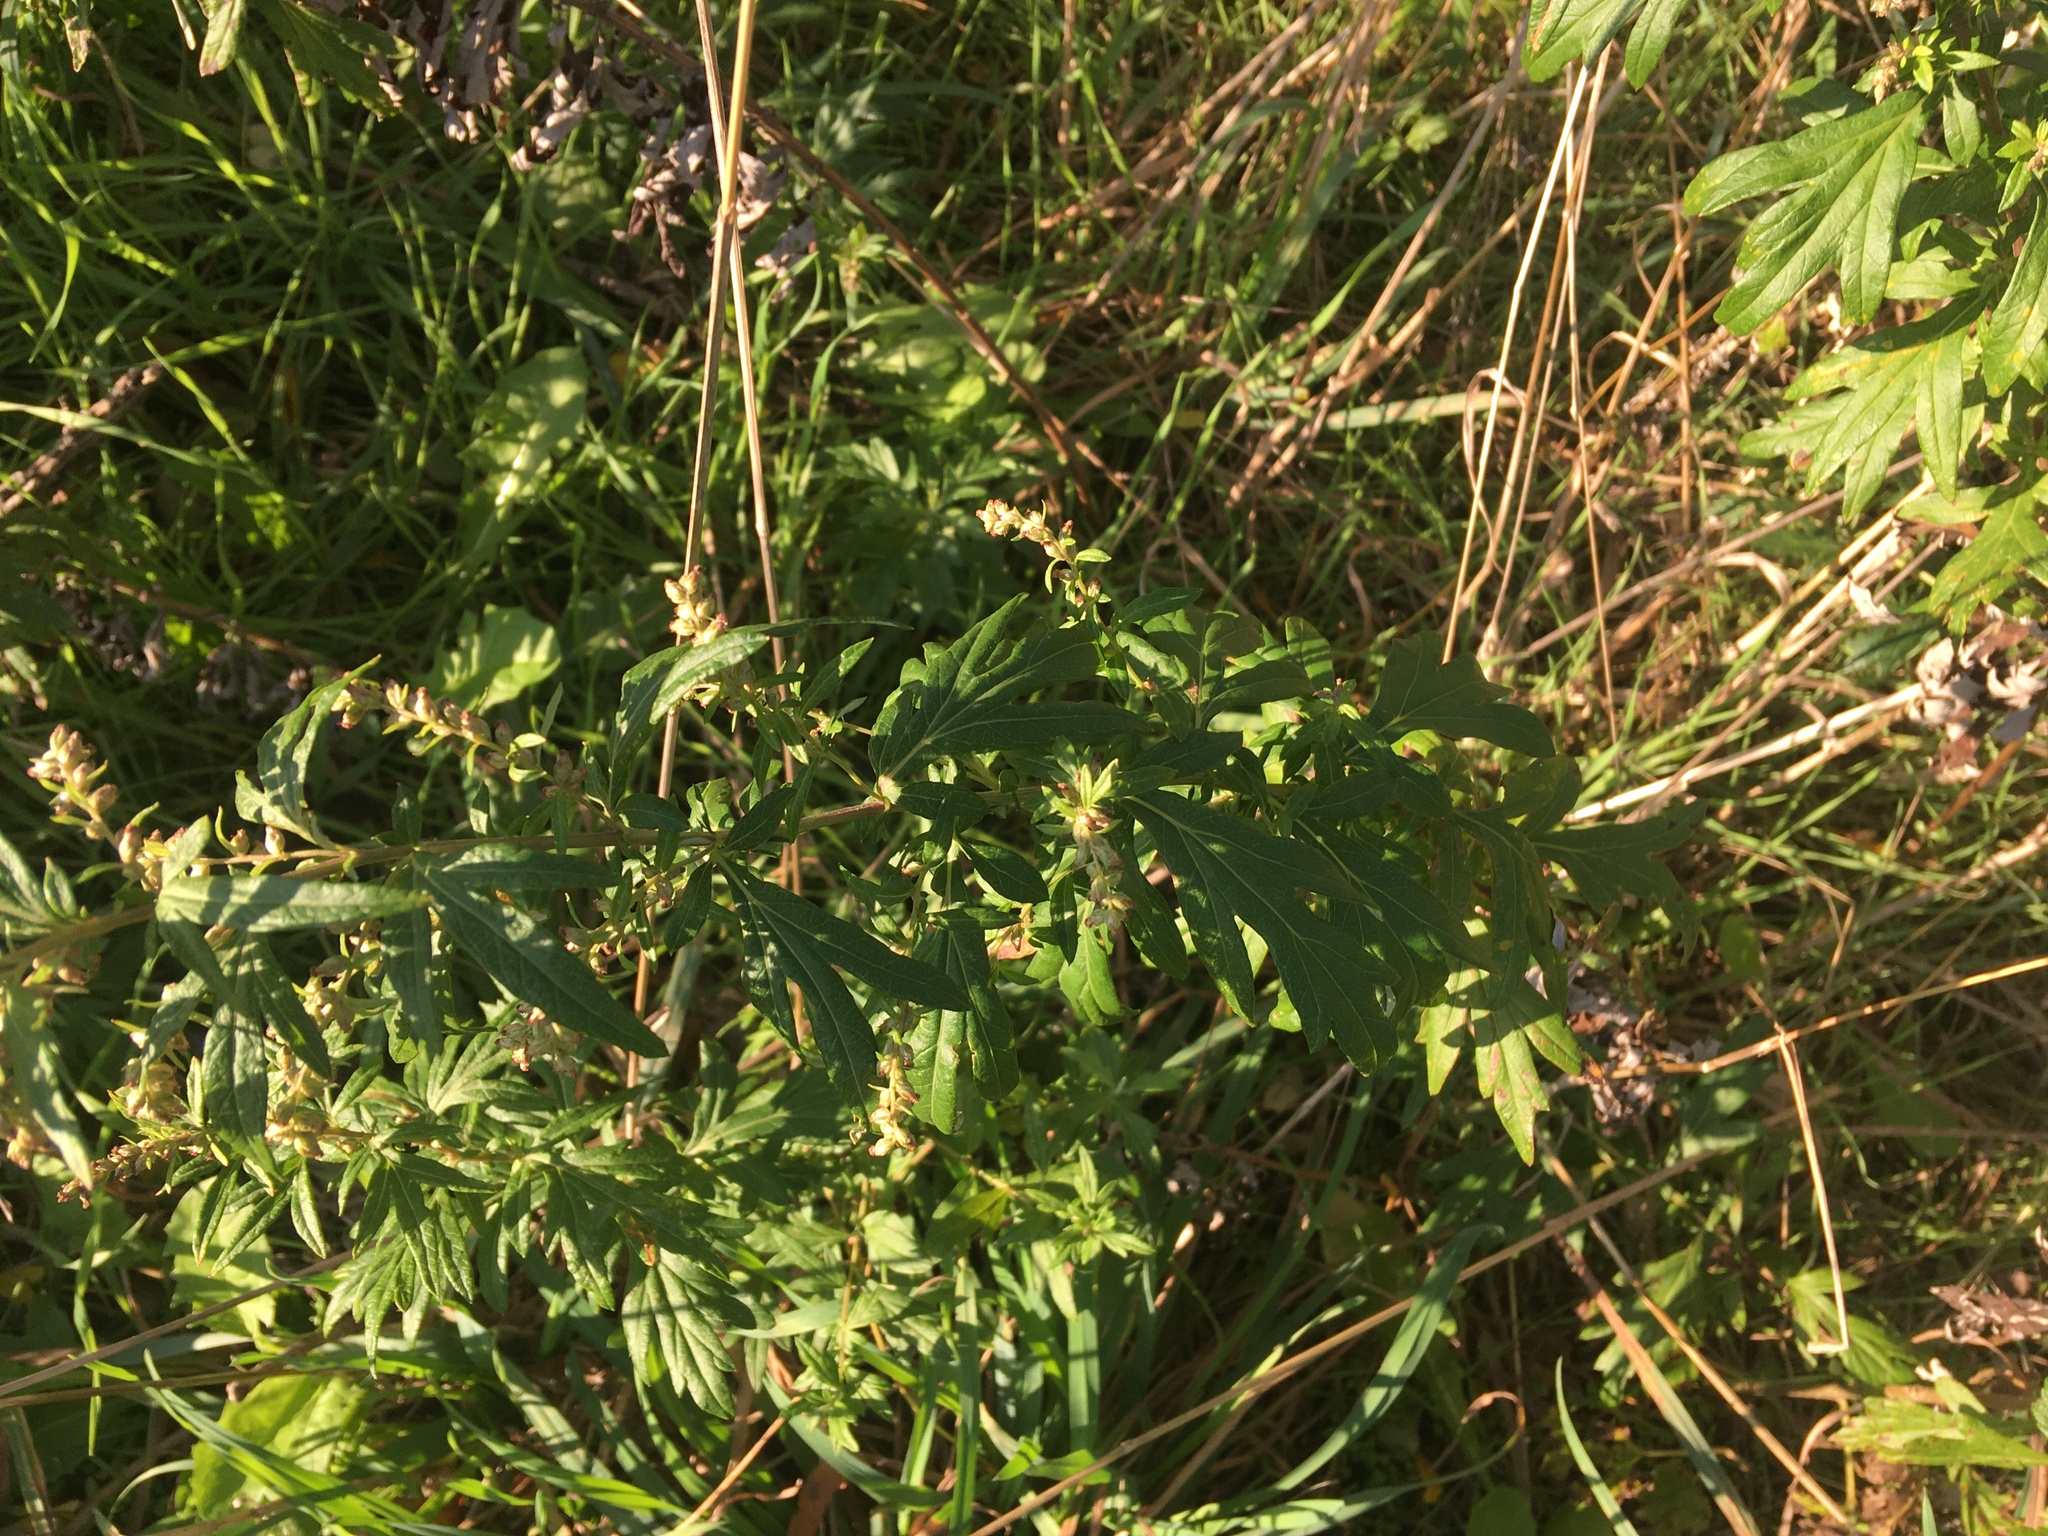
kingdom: Plantae
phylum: Tracheophyta
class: Magnoliopsida
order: Asterales
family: Asteraceae
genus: Artemisia
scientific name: Artemisia vulgaris
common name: Mugwort
